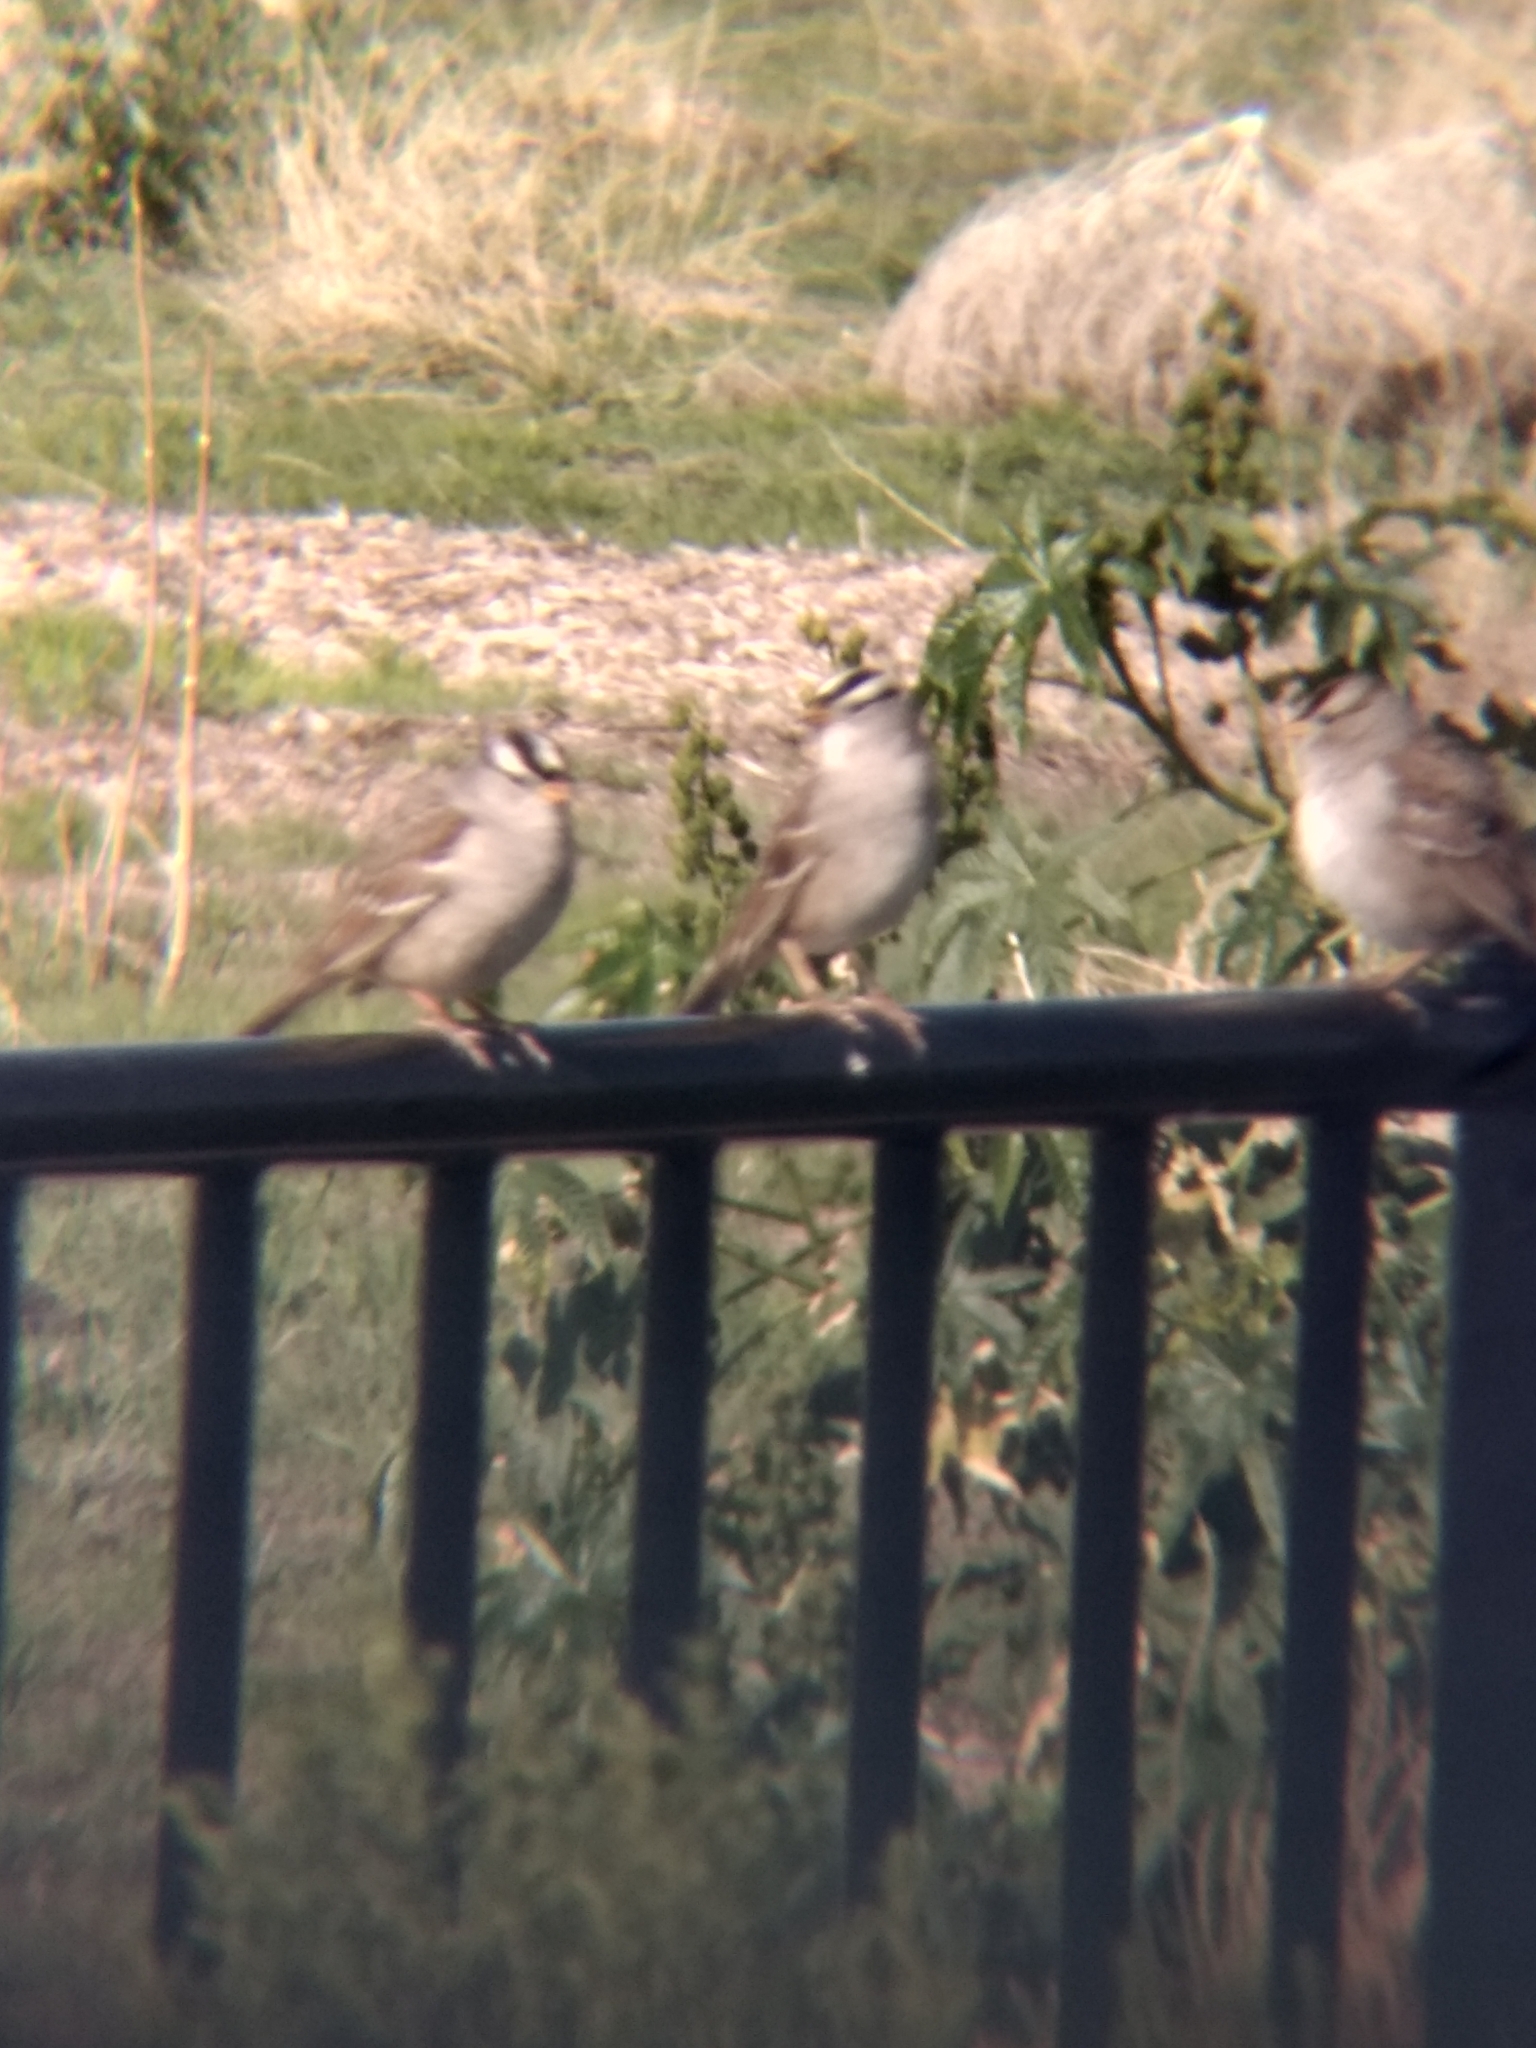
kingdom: Animalia
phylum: Chordata
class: Aves
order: Passeriformes
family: Passerellidae
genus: Zonotrichia
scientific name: Zonotrichia leucophrys
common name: White-crowned sparrow
